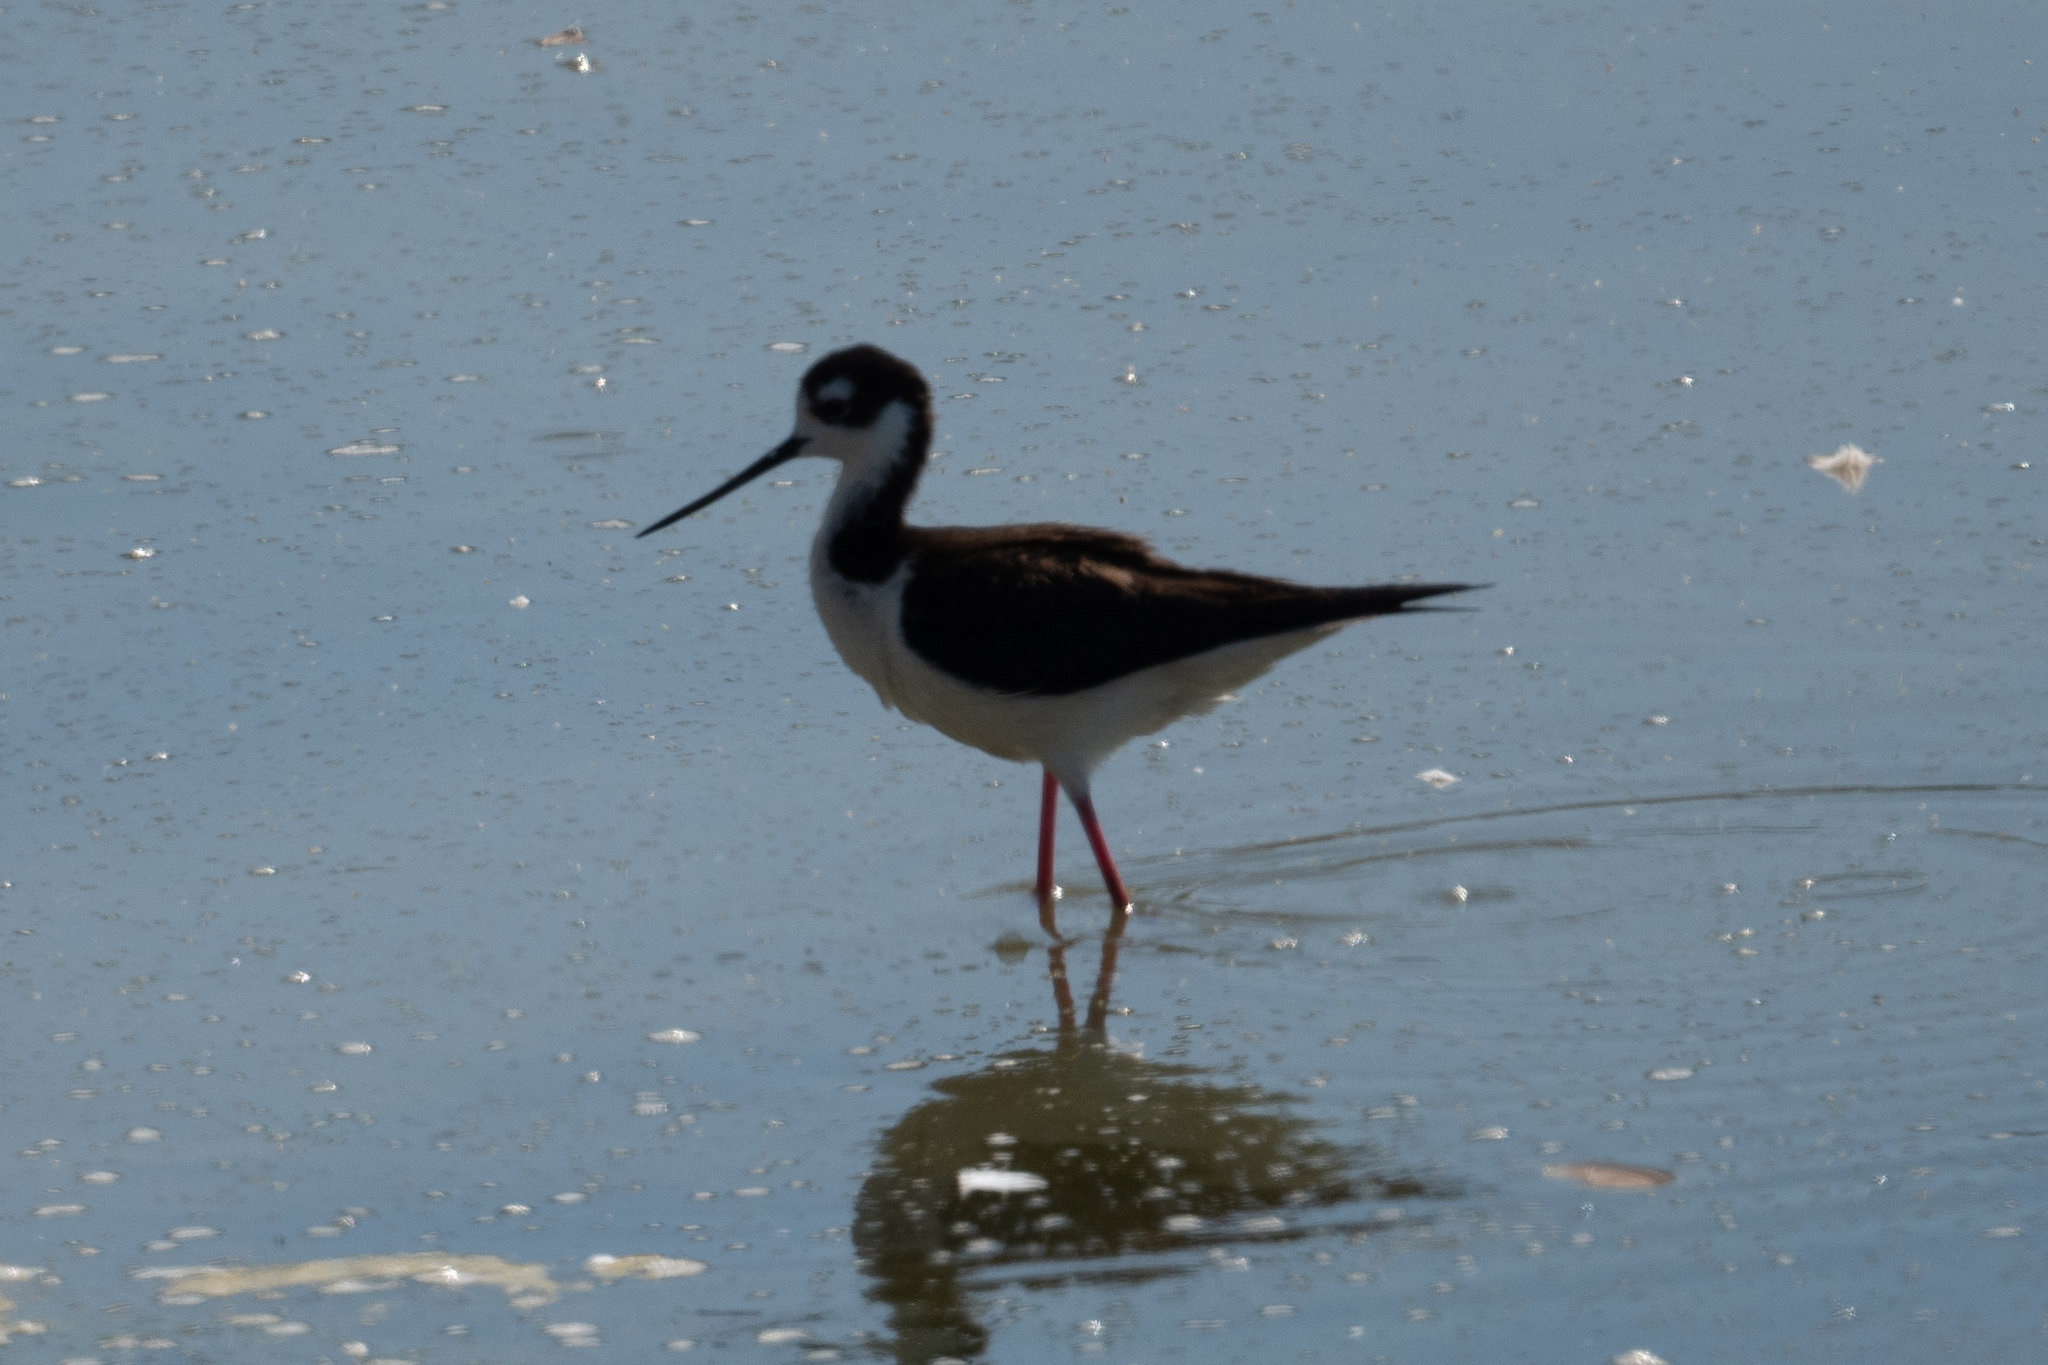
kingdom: Animalia
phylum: Chordata
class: Aves
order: Charadriiformes
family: Recurvirostridae
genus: Himantopus
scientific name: Himantopus mexicanus
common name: Black-necked stilt
